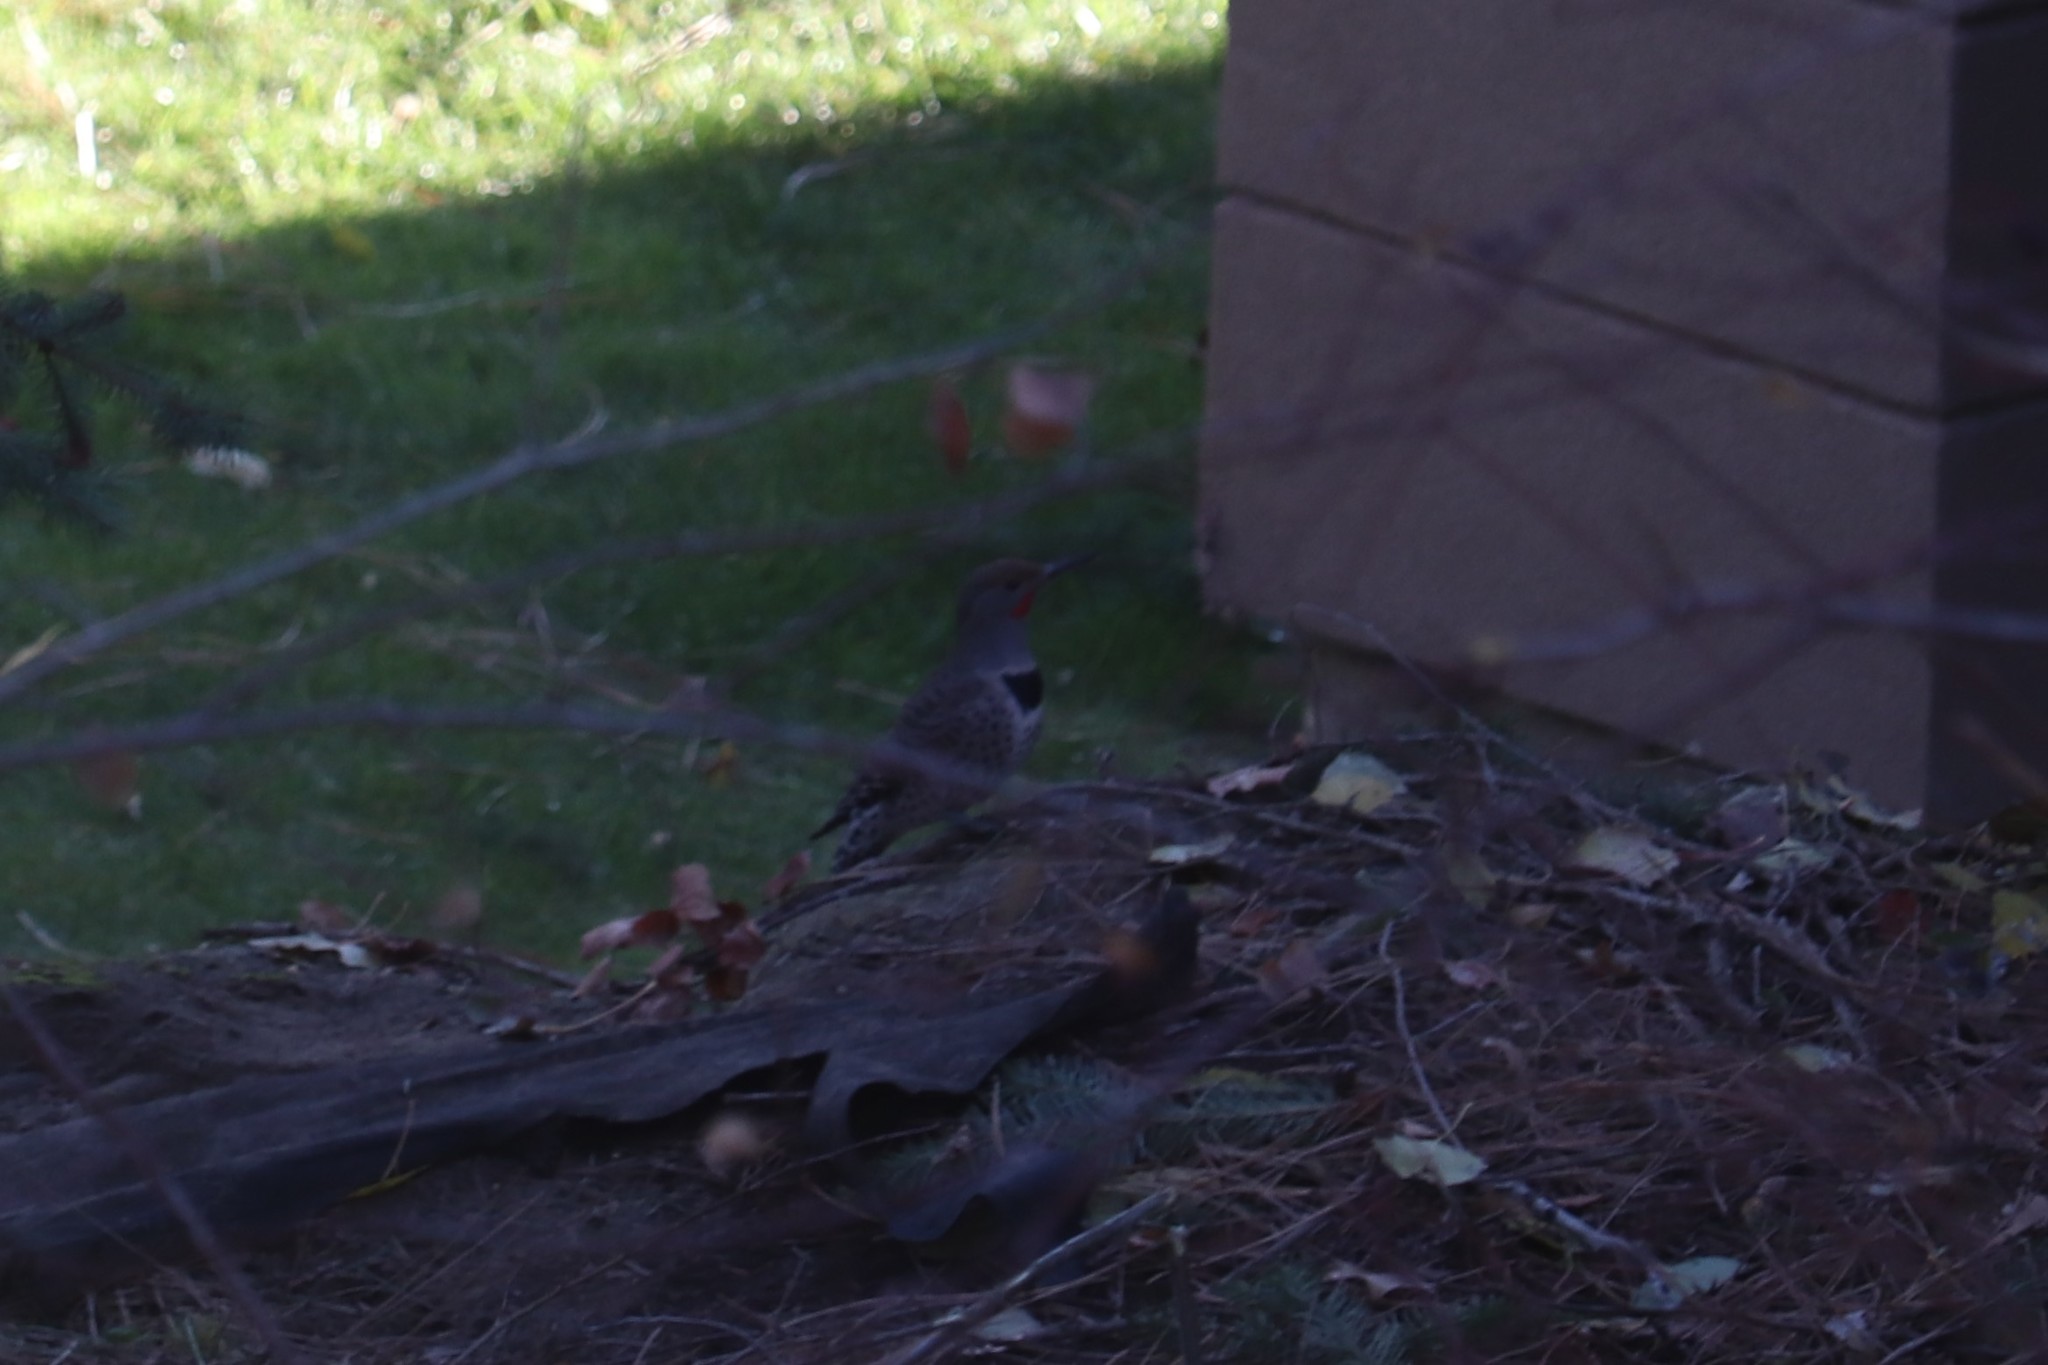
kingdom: Animalia
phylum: Chordata
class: Aves
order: Piciformes
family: Picidae
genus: Colaptes
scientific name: Colaptes auratus
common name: Northern flicker
